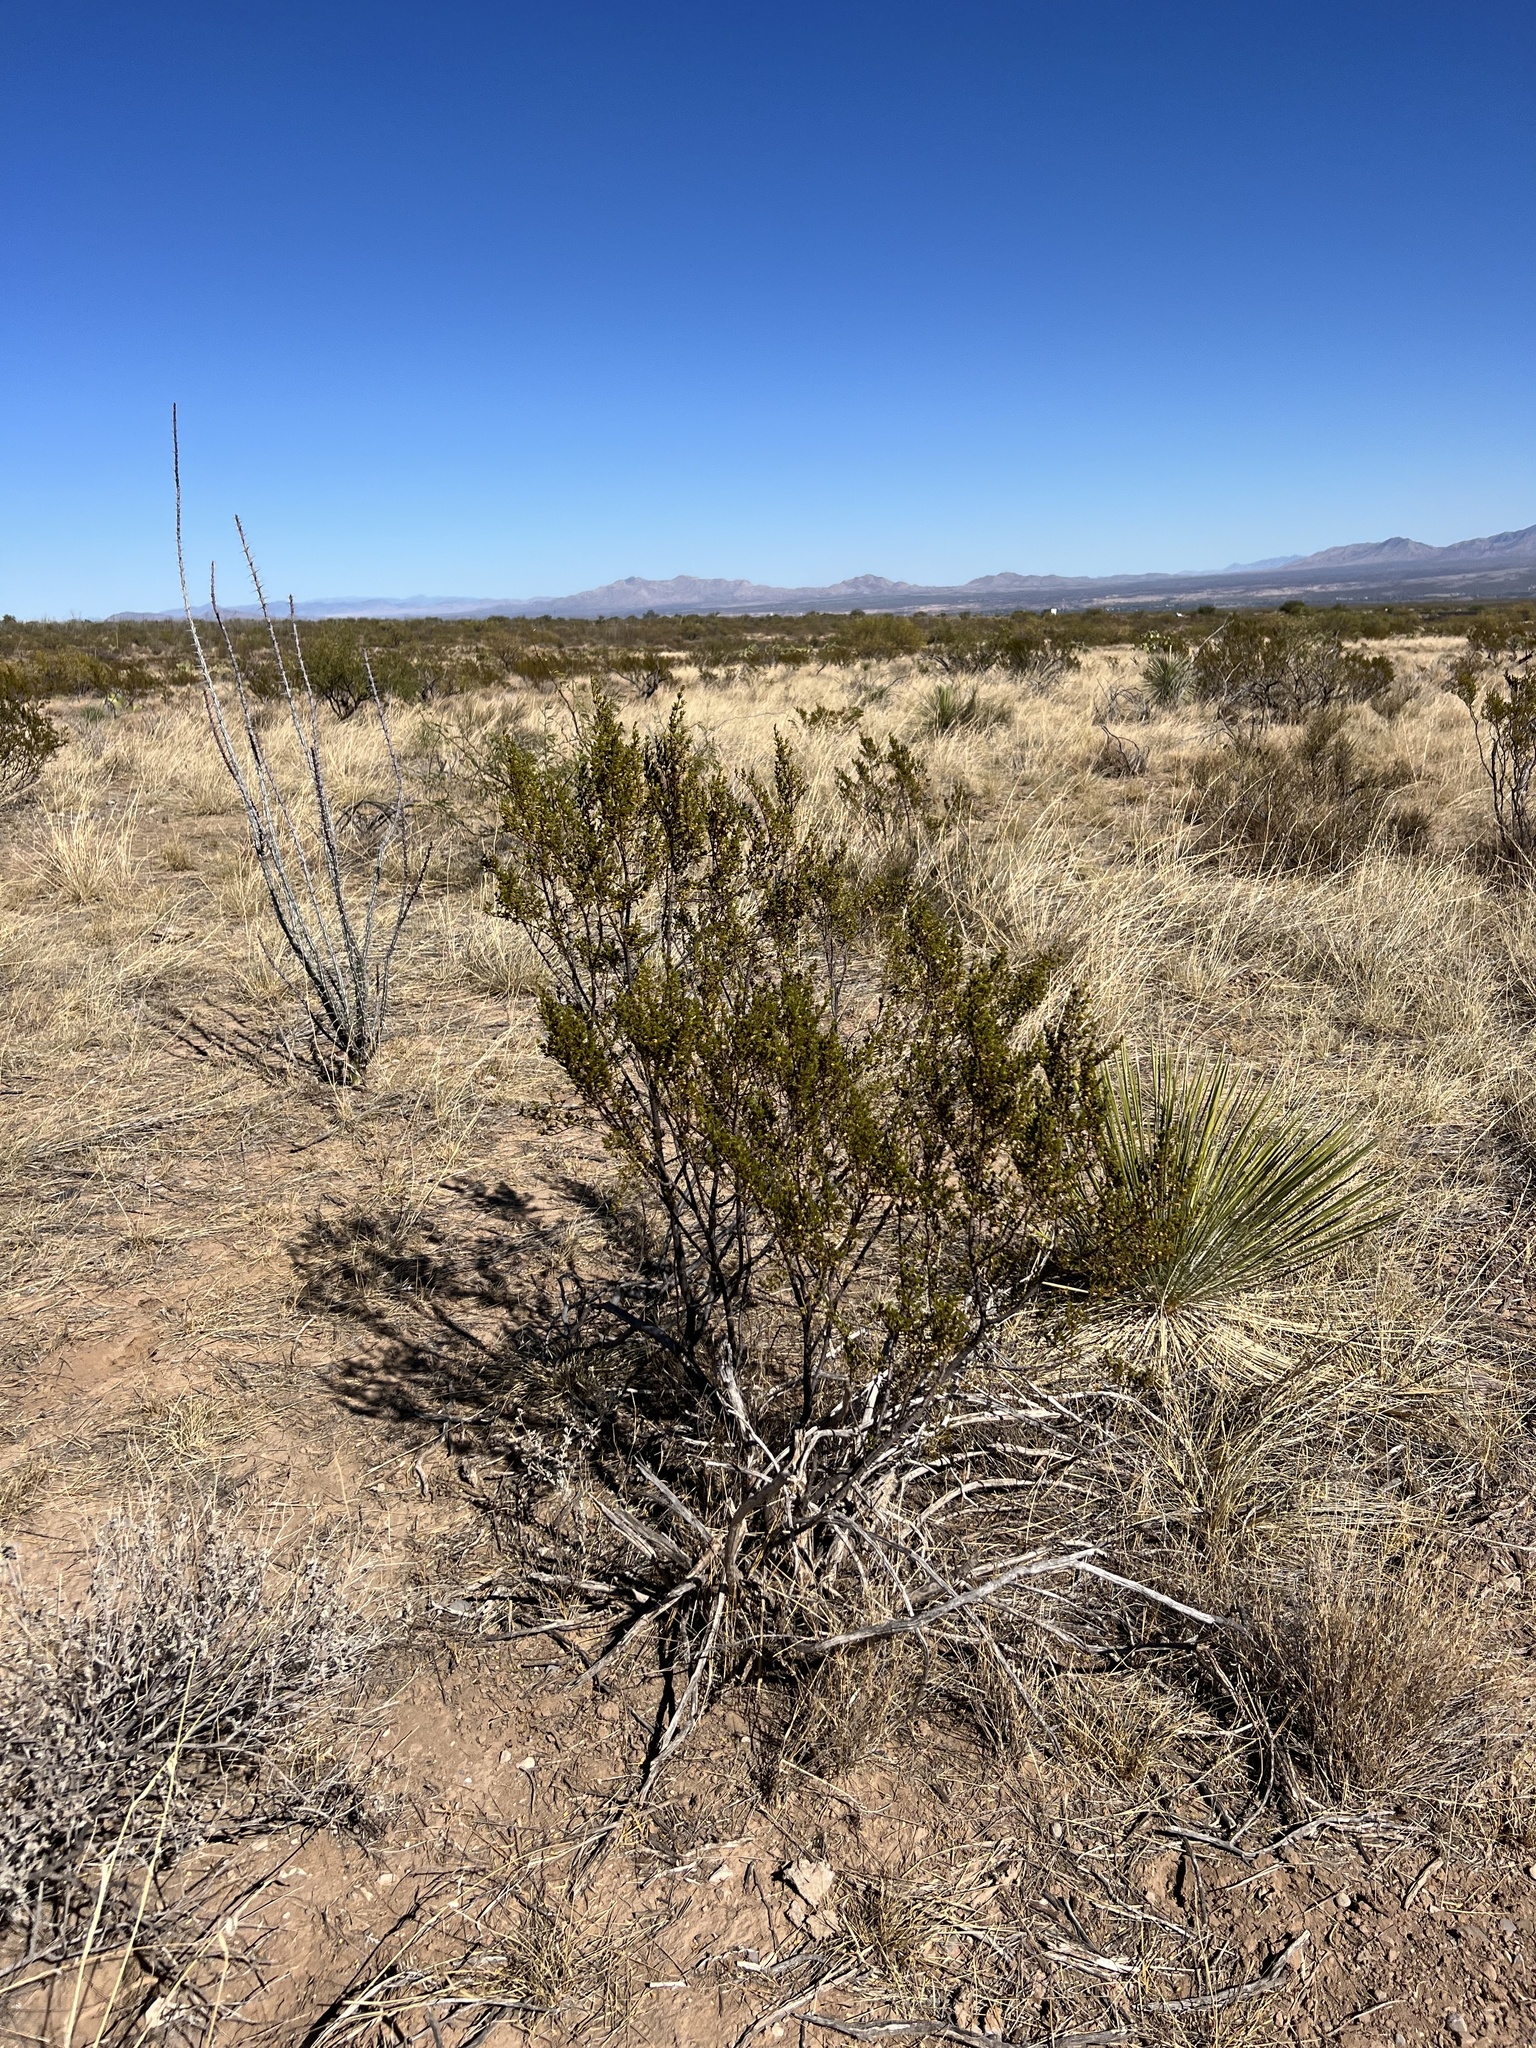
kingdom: Plantae
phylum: Tracheophyta
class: Magnoliopsida
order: Zygophyllales
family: Zygophyllaceae
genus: Larrea
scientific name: Larrea tridentata
